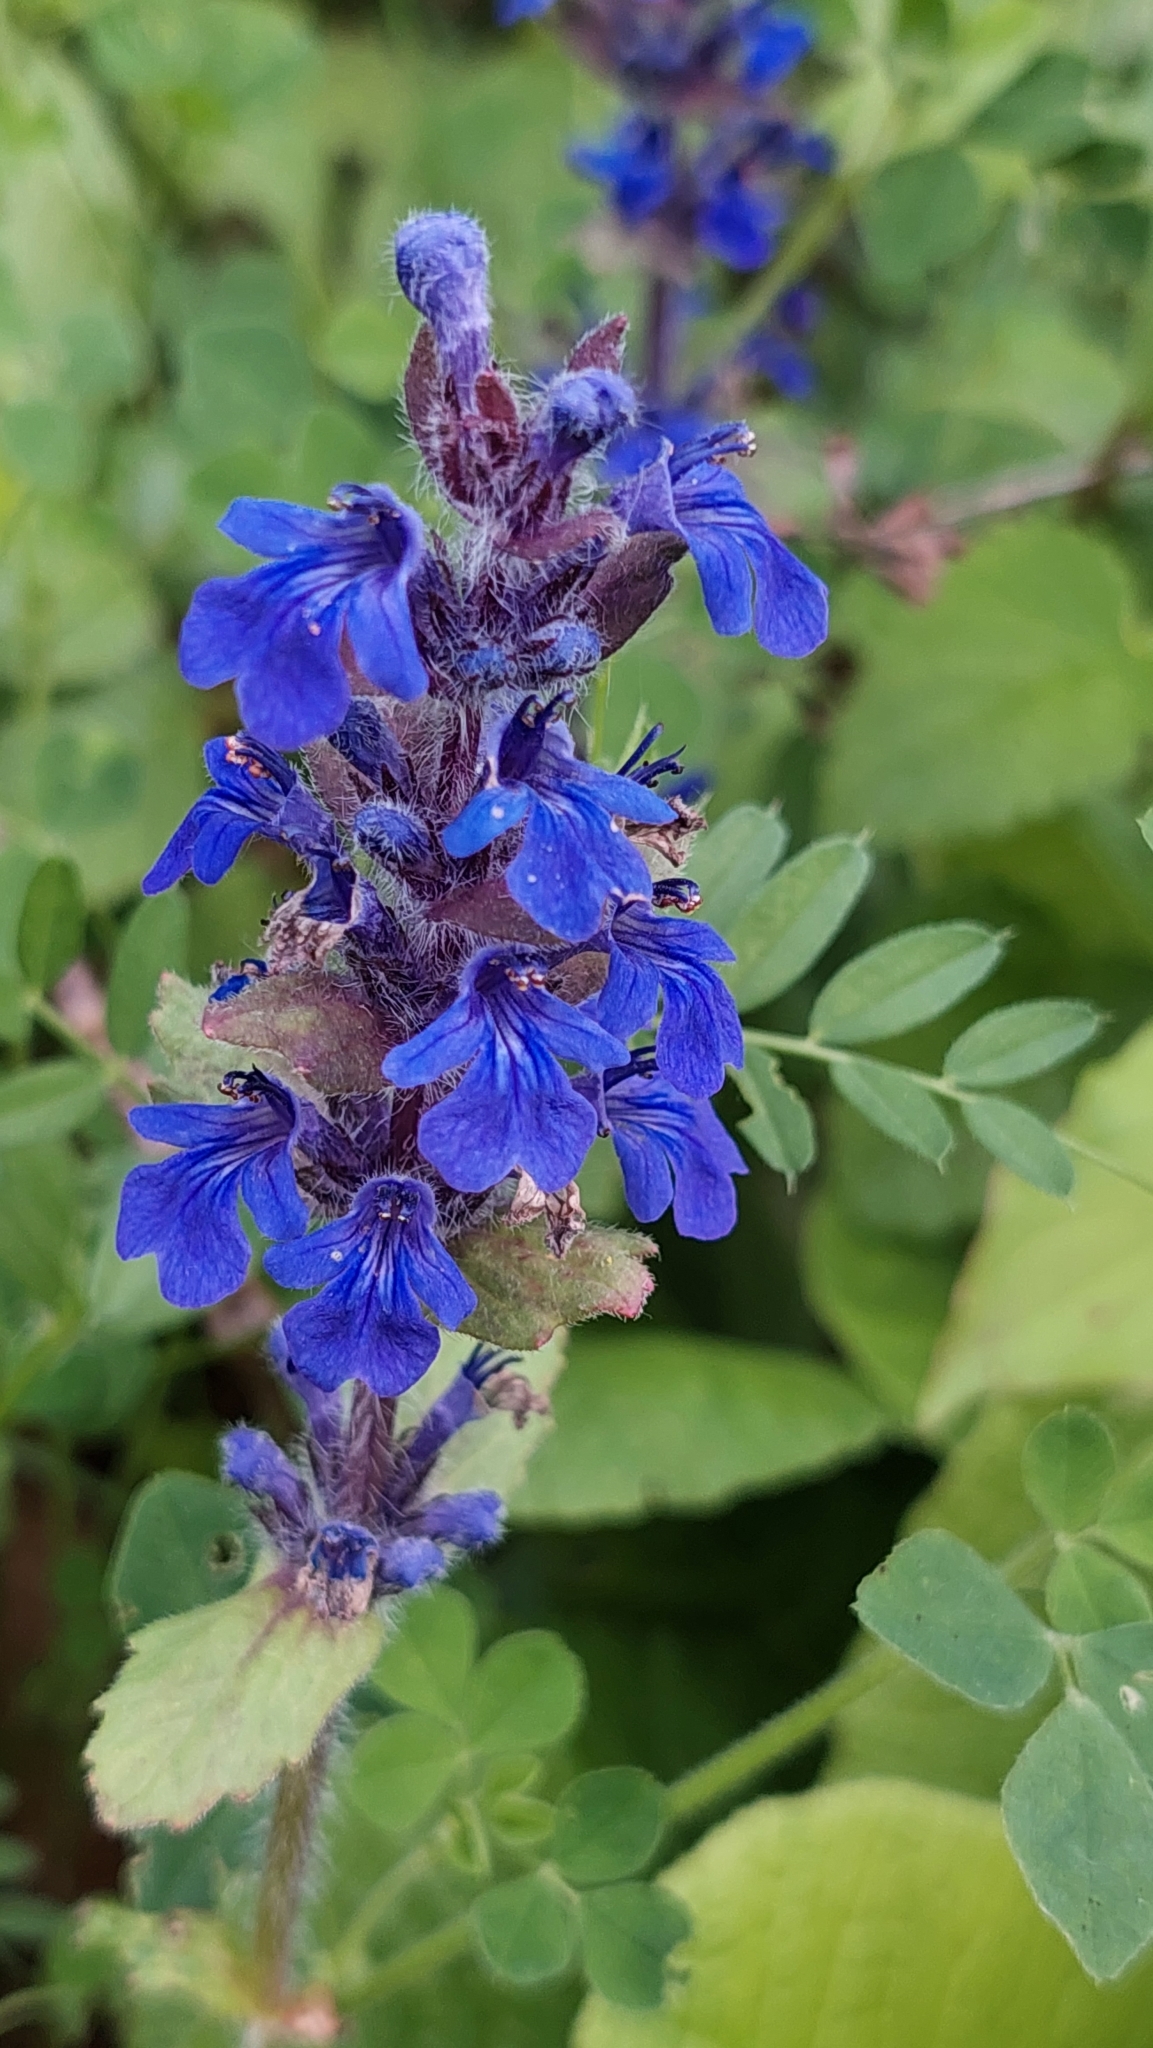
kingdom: Plantae
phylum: Tracheophyta
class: Magnoliopsida
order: Lamiales
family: Lamiaceae
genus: Ajuga
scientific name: Ajuga reptans
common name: Bugle
